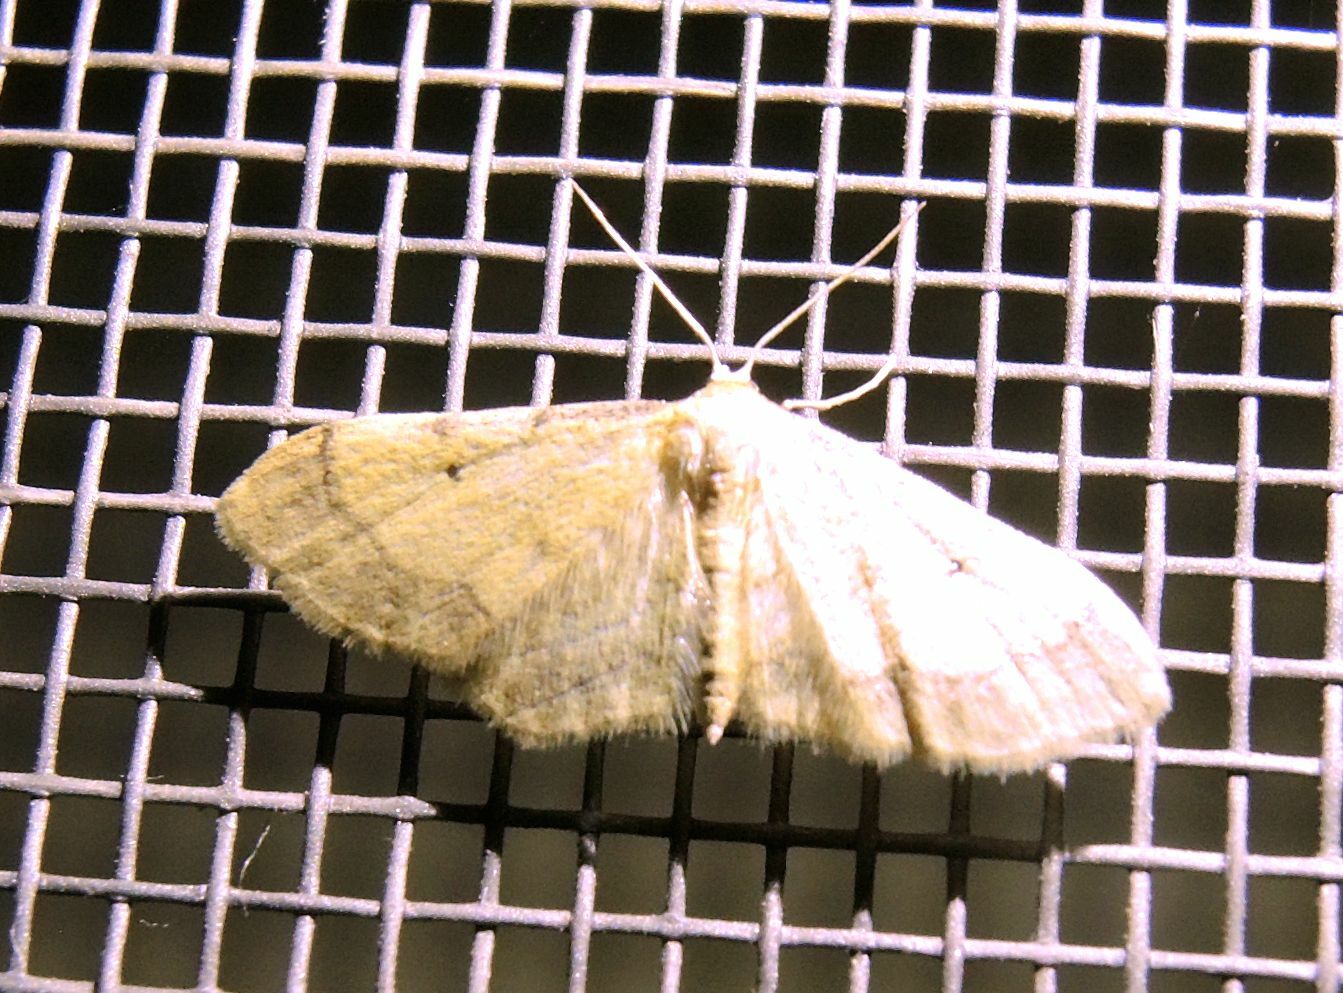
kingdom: Animalia
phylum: Arthropoda
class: Insecta
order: Lepidoptera
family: Geometridae
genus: Idaea
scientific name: Idaea politaria
